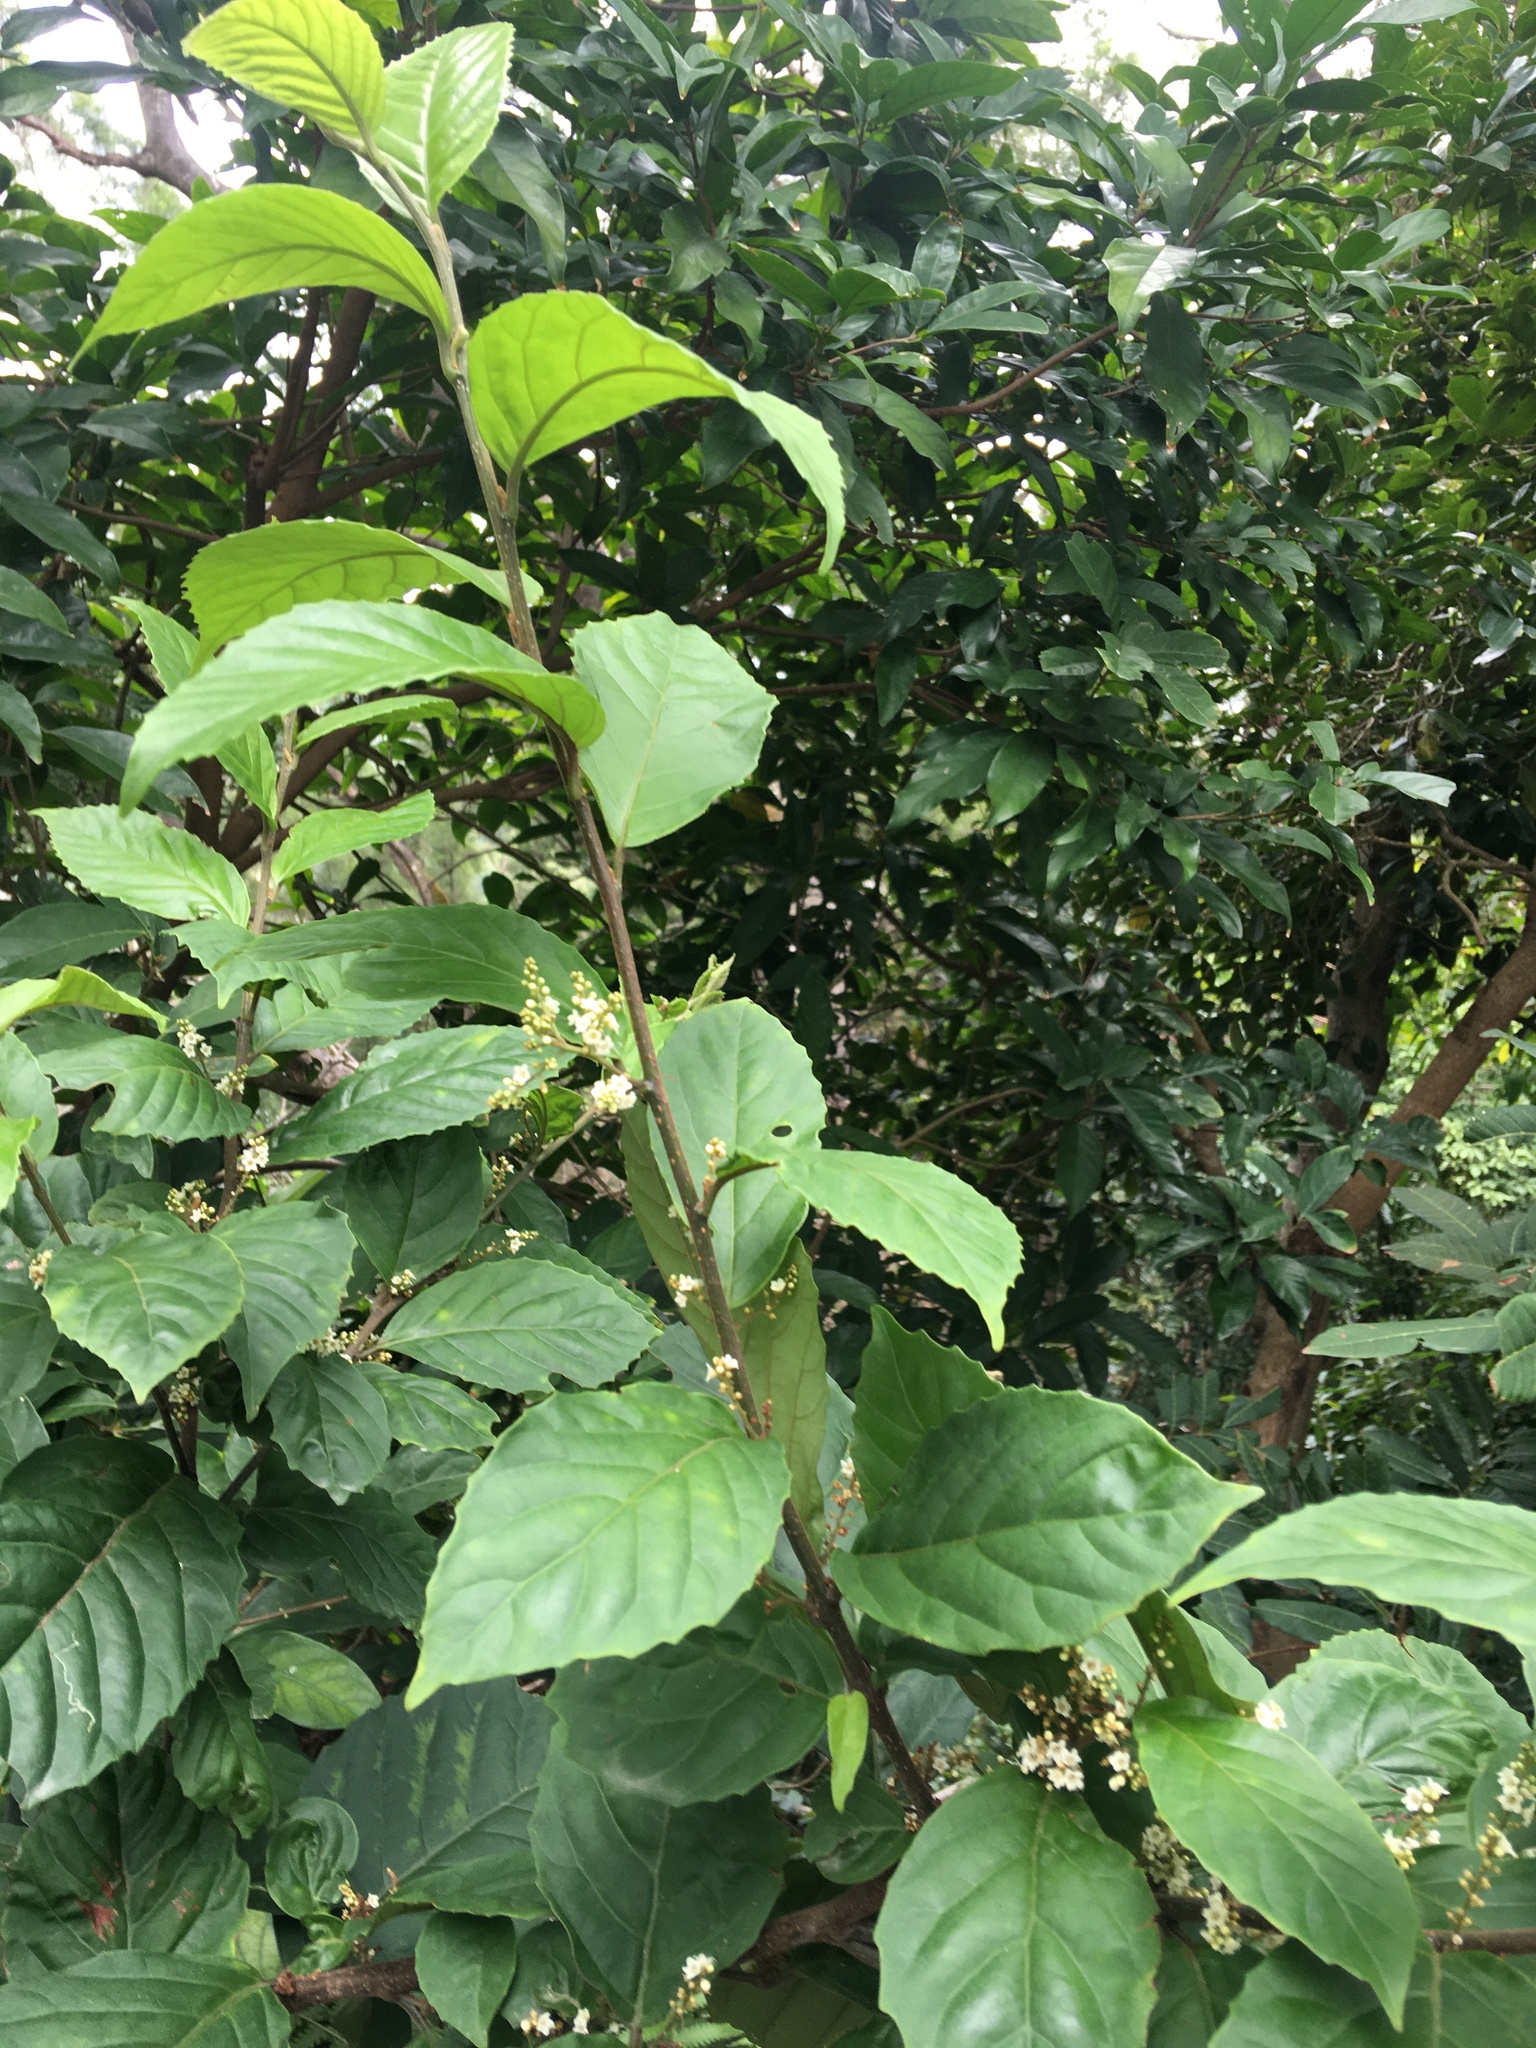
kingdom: Plantae
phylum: Tracheophyta
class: Magnoliopsida
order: Ericales
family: Primulaceae
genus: Maesa
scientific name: Maesa perlaria
